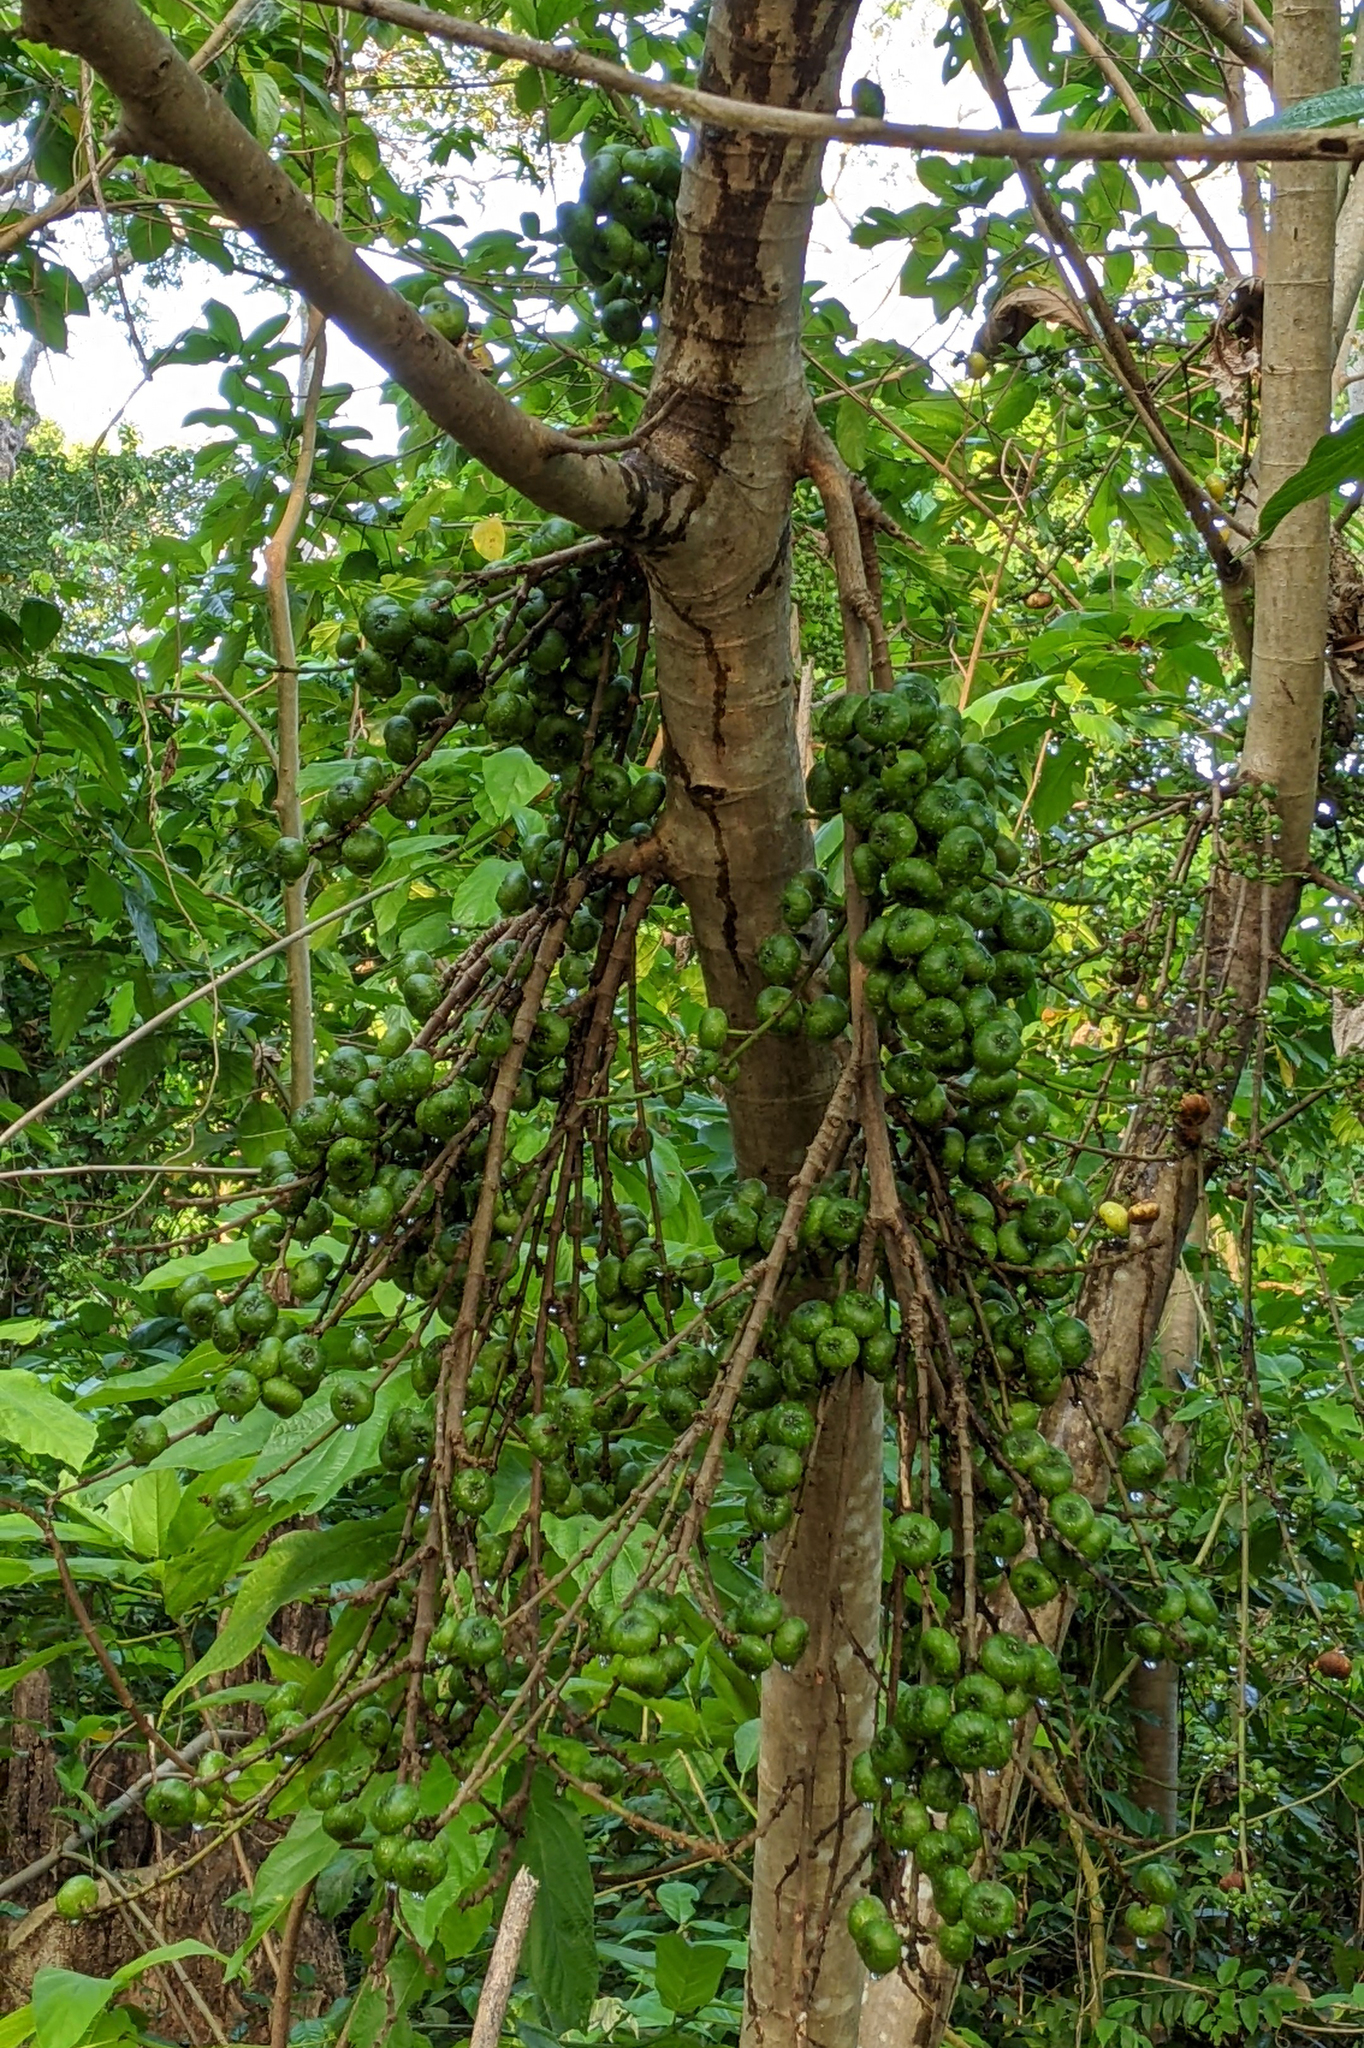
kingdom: Plantae
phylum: Tracheophyta
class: Magnoliopsida
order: Rosales
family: Moraceae
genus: Ficus
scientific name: Ficus hispida
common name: Hairy fig
